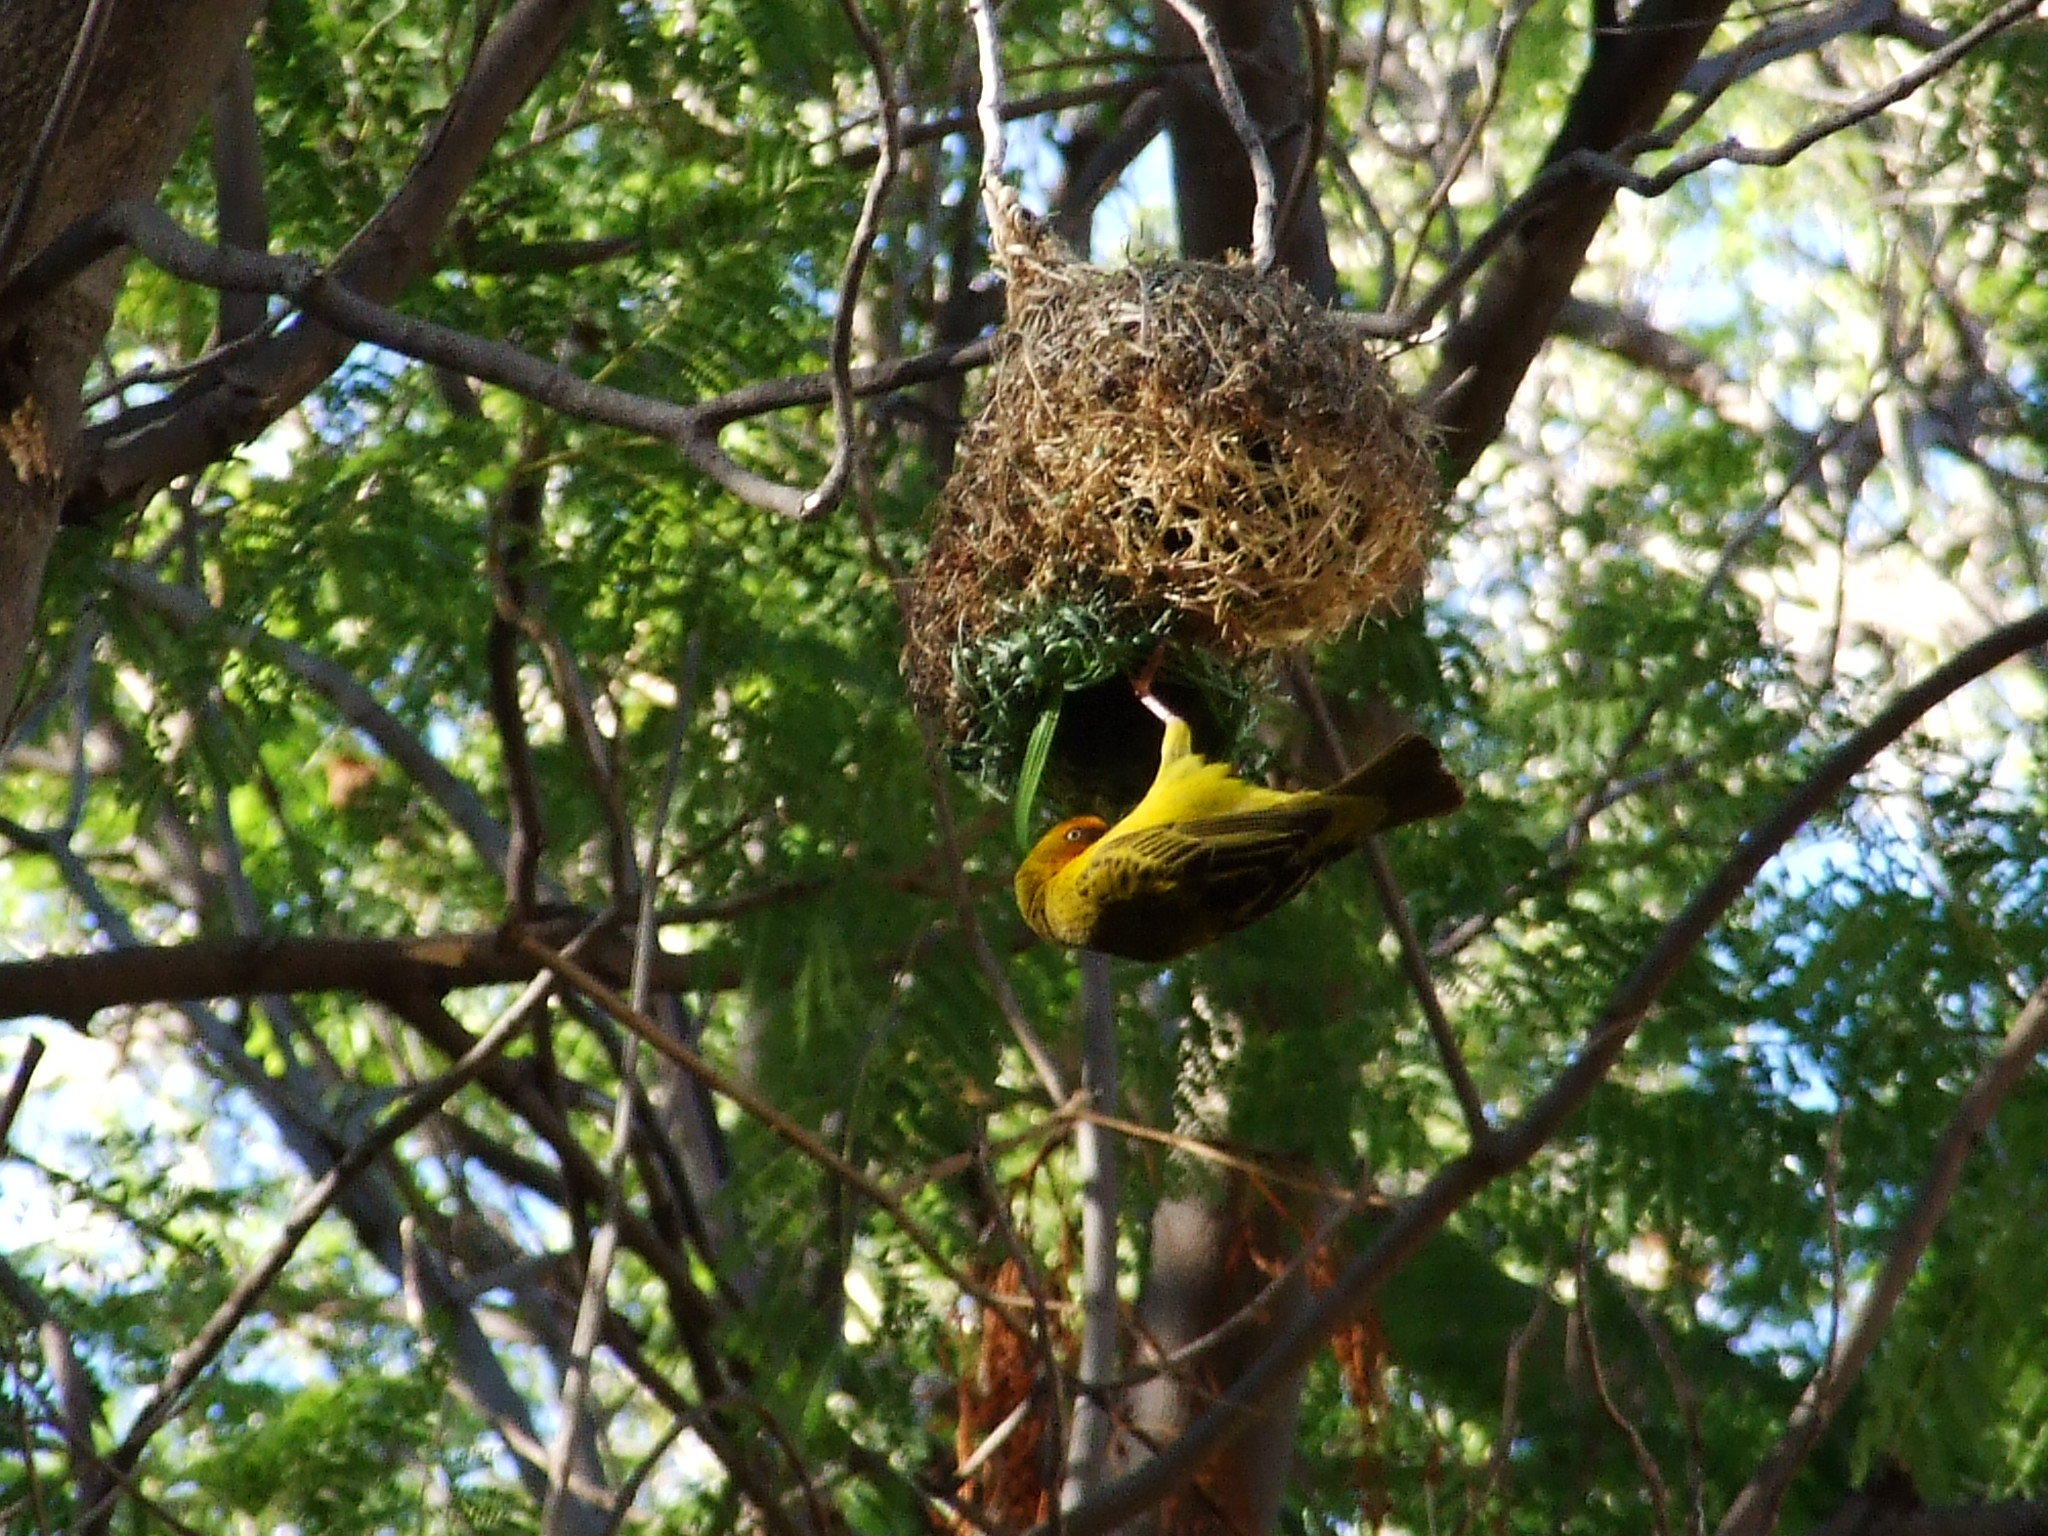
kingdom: Animalia
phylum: Chordata
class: Aves
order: Passeriformes
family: Ploceidae
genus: Ploceus
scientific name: Ploceus capensis
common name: Cape weaver
